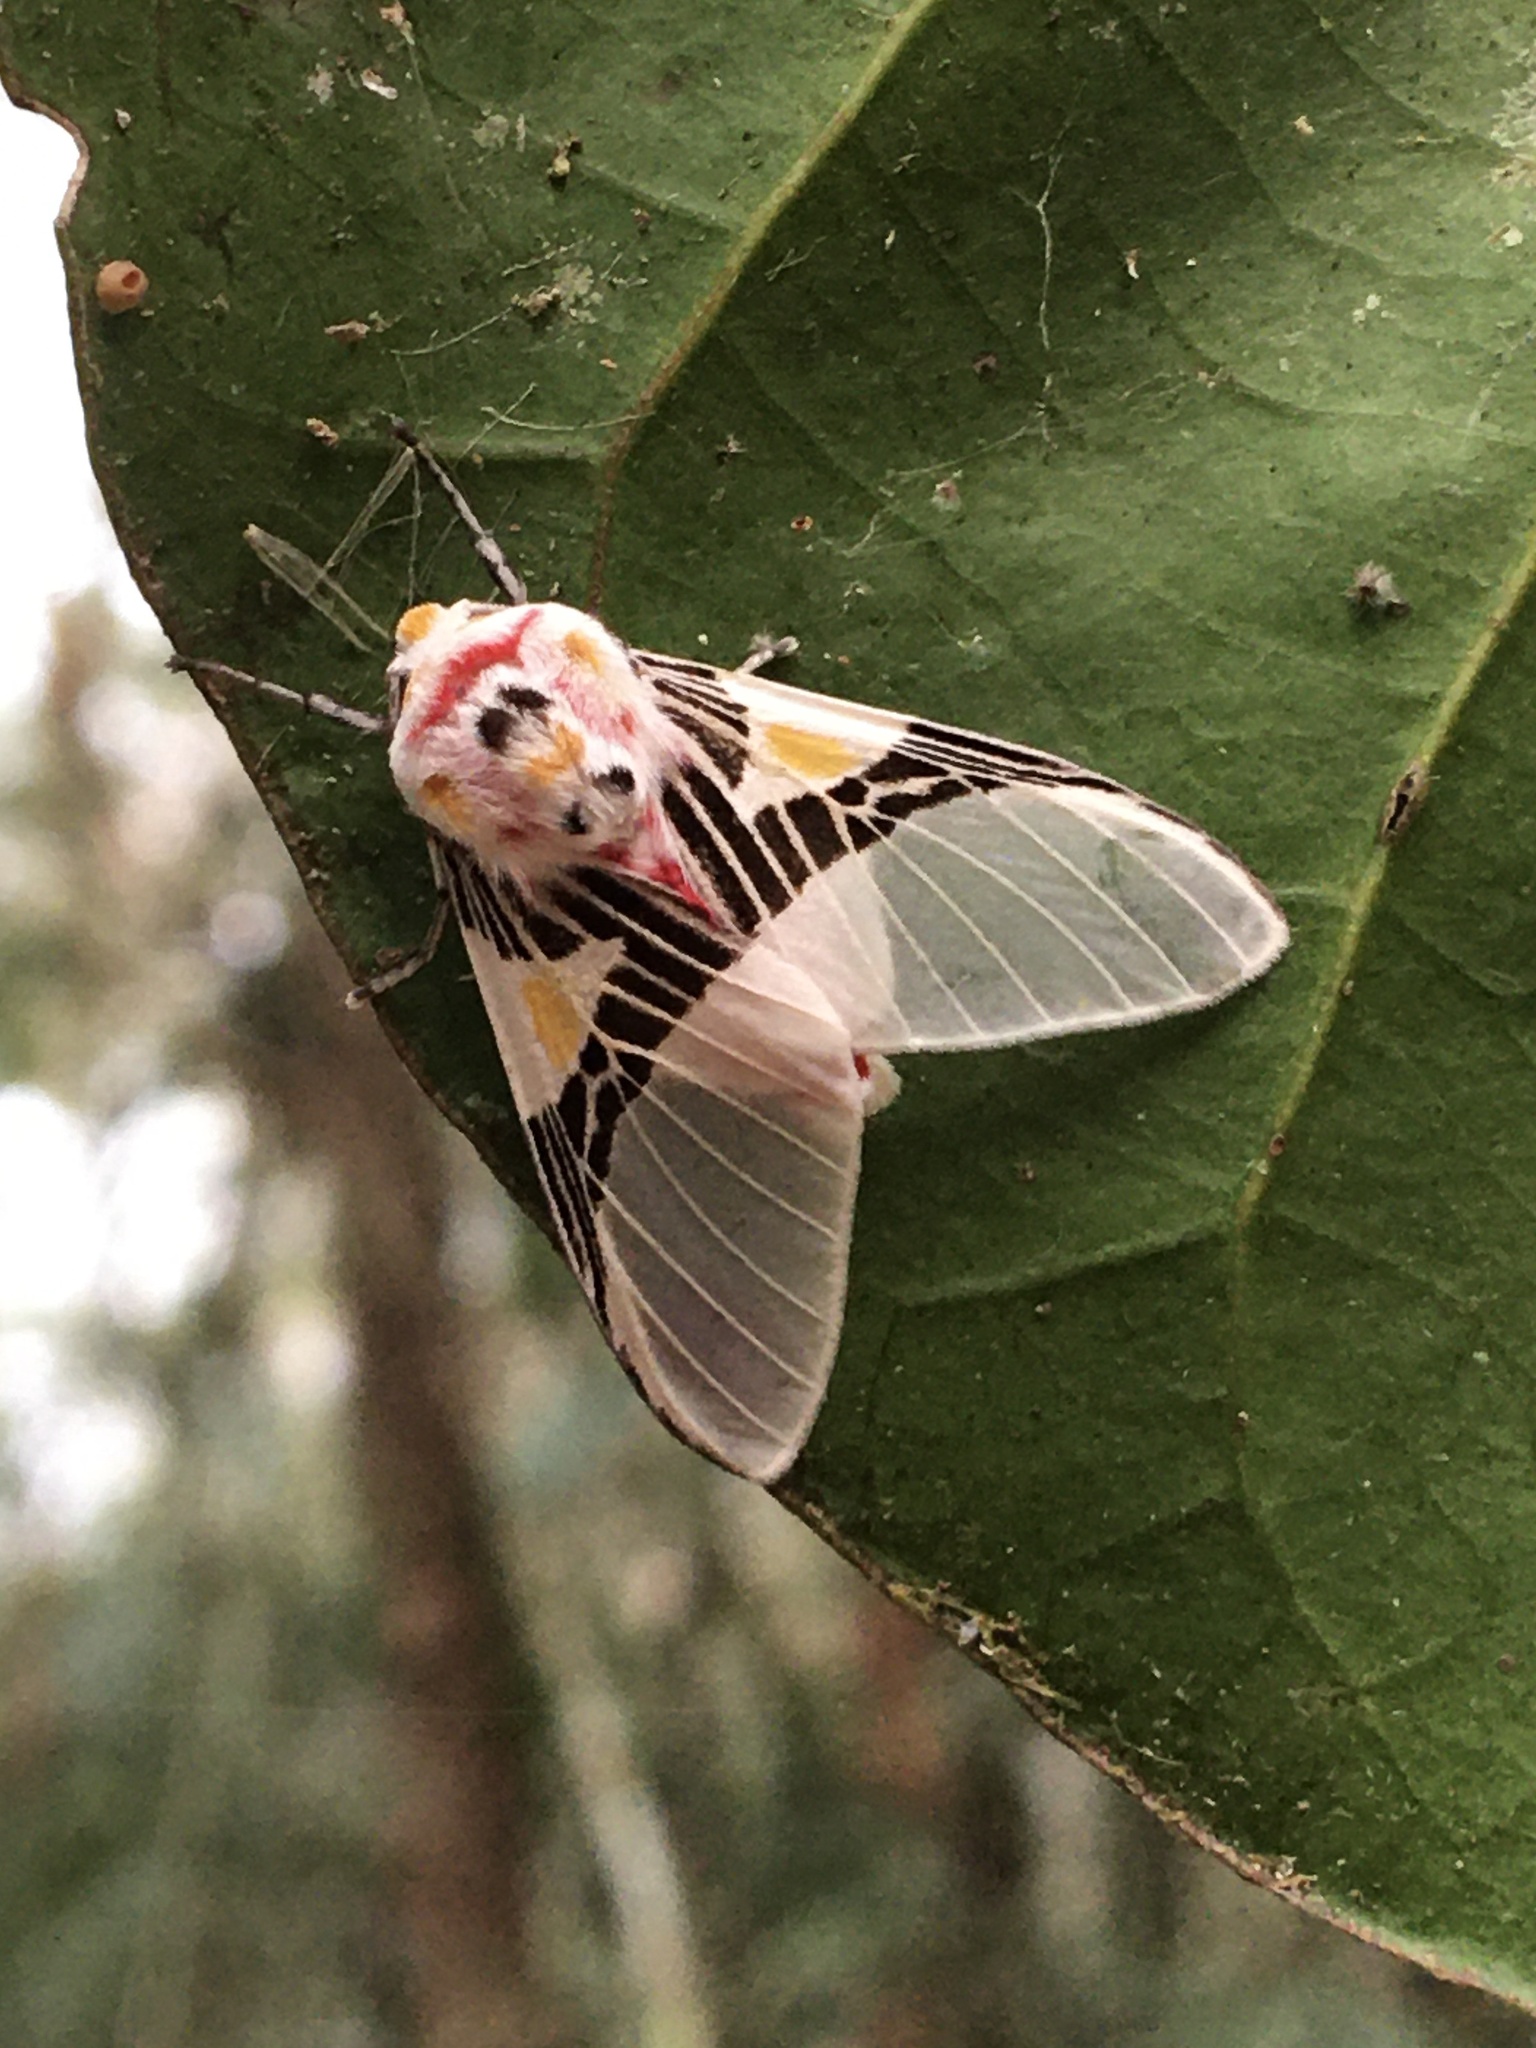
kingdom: Animalia
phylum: Arthropoda
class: Insecta
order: Lepidoptera
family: Erebidae
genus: Idalus
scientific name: Idalus dorsalis
